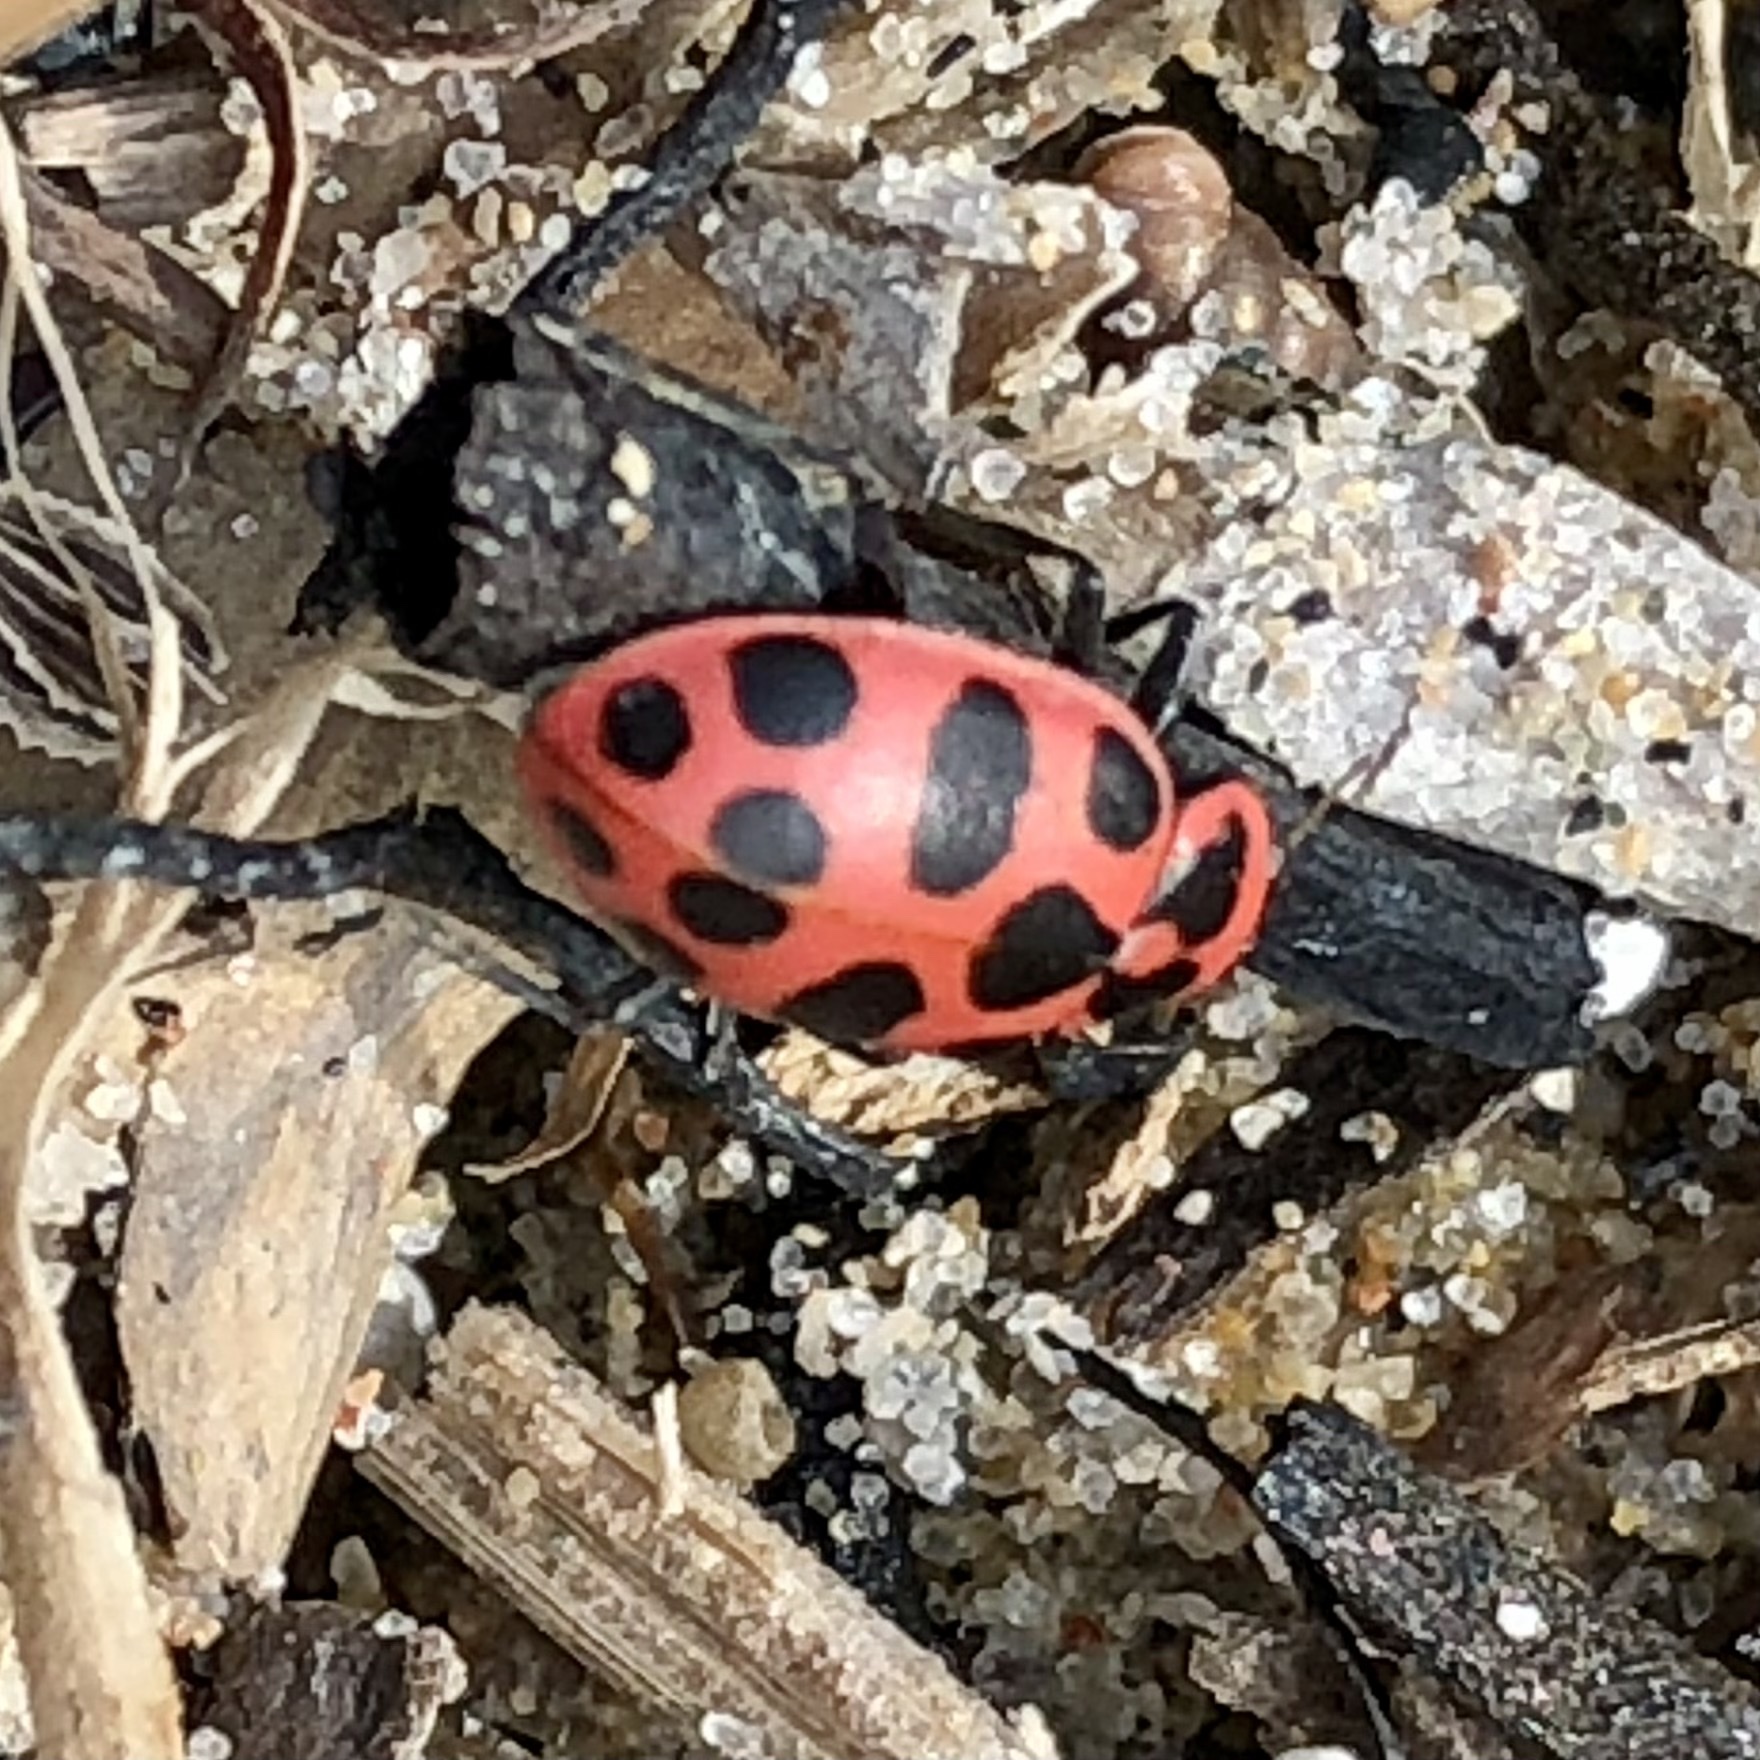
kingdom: Animalia
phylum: Arthropoda
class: Insecta
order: Coleoptera
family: Coccinellidae
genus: Coleomegilla
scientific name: Coleomegilla maculata
